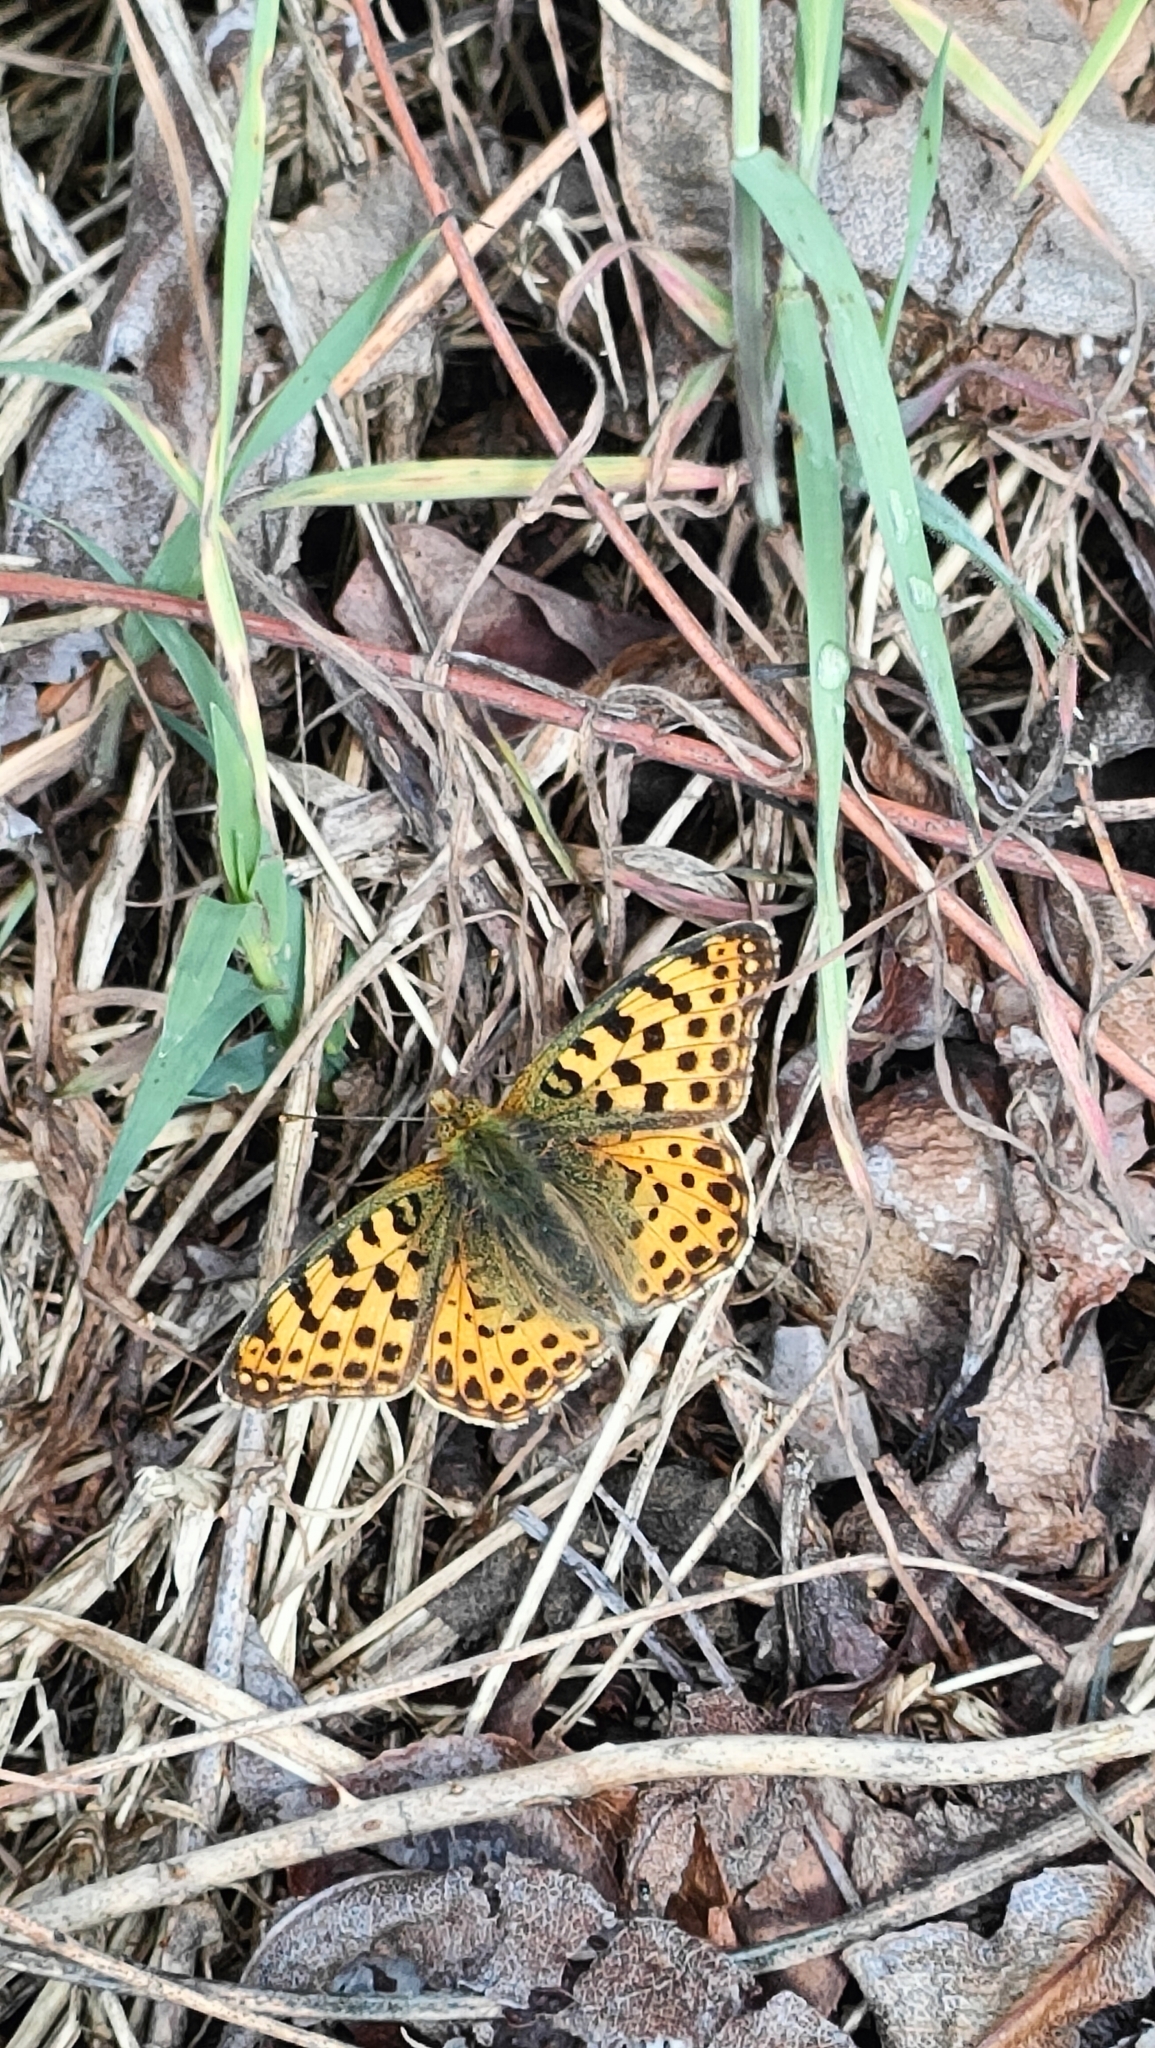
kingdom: Animalia
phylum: Arthropoda
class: Insecta
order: Lepidoptera
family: Nymphalidae
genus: Issoria
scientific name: Issoria lathonia
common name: Queen of spain fritillary
